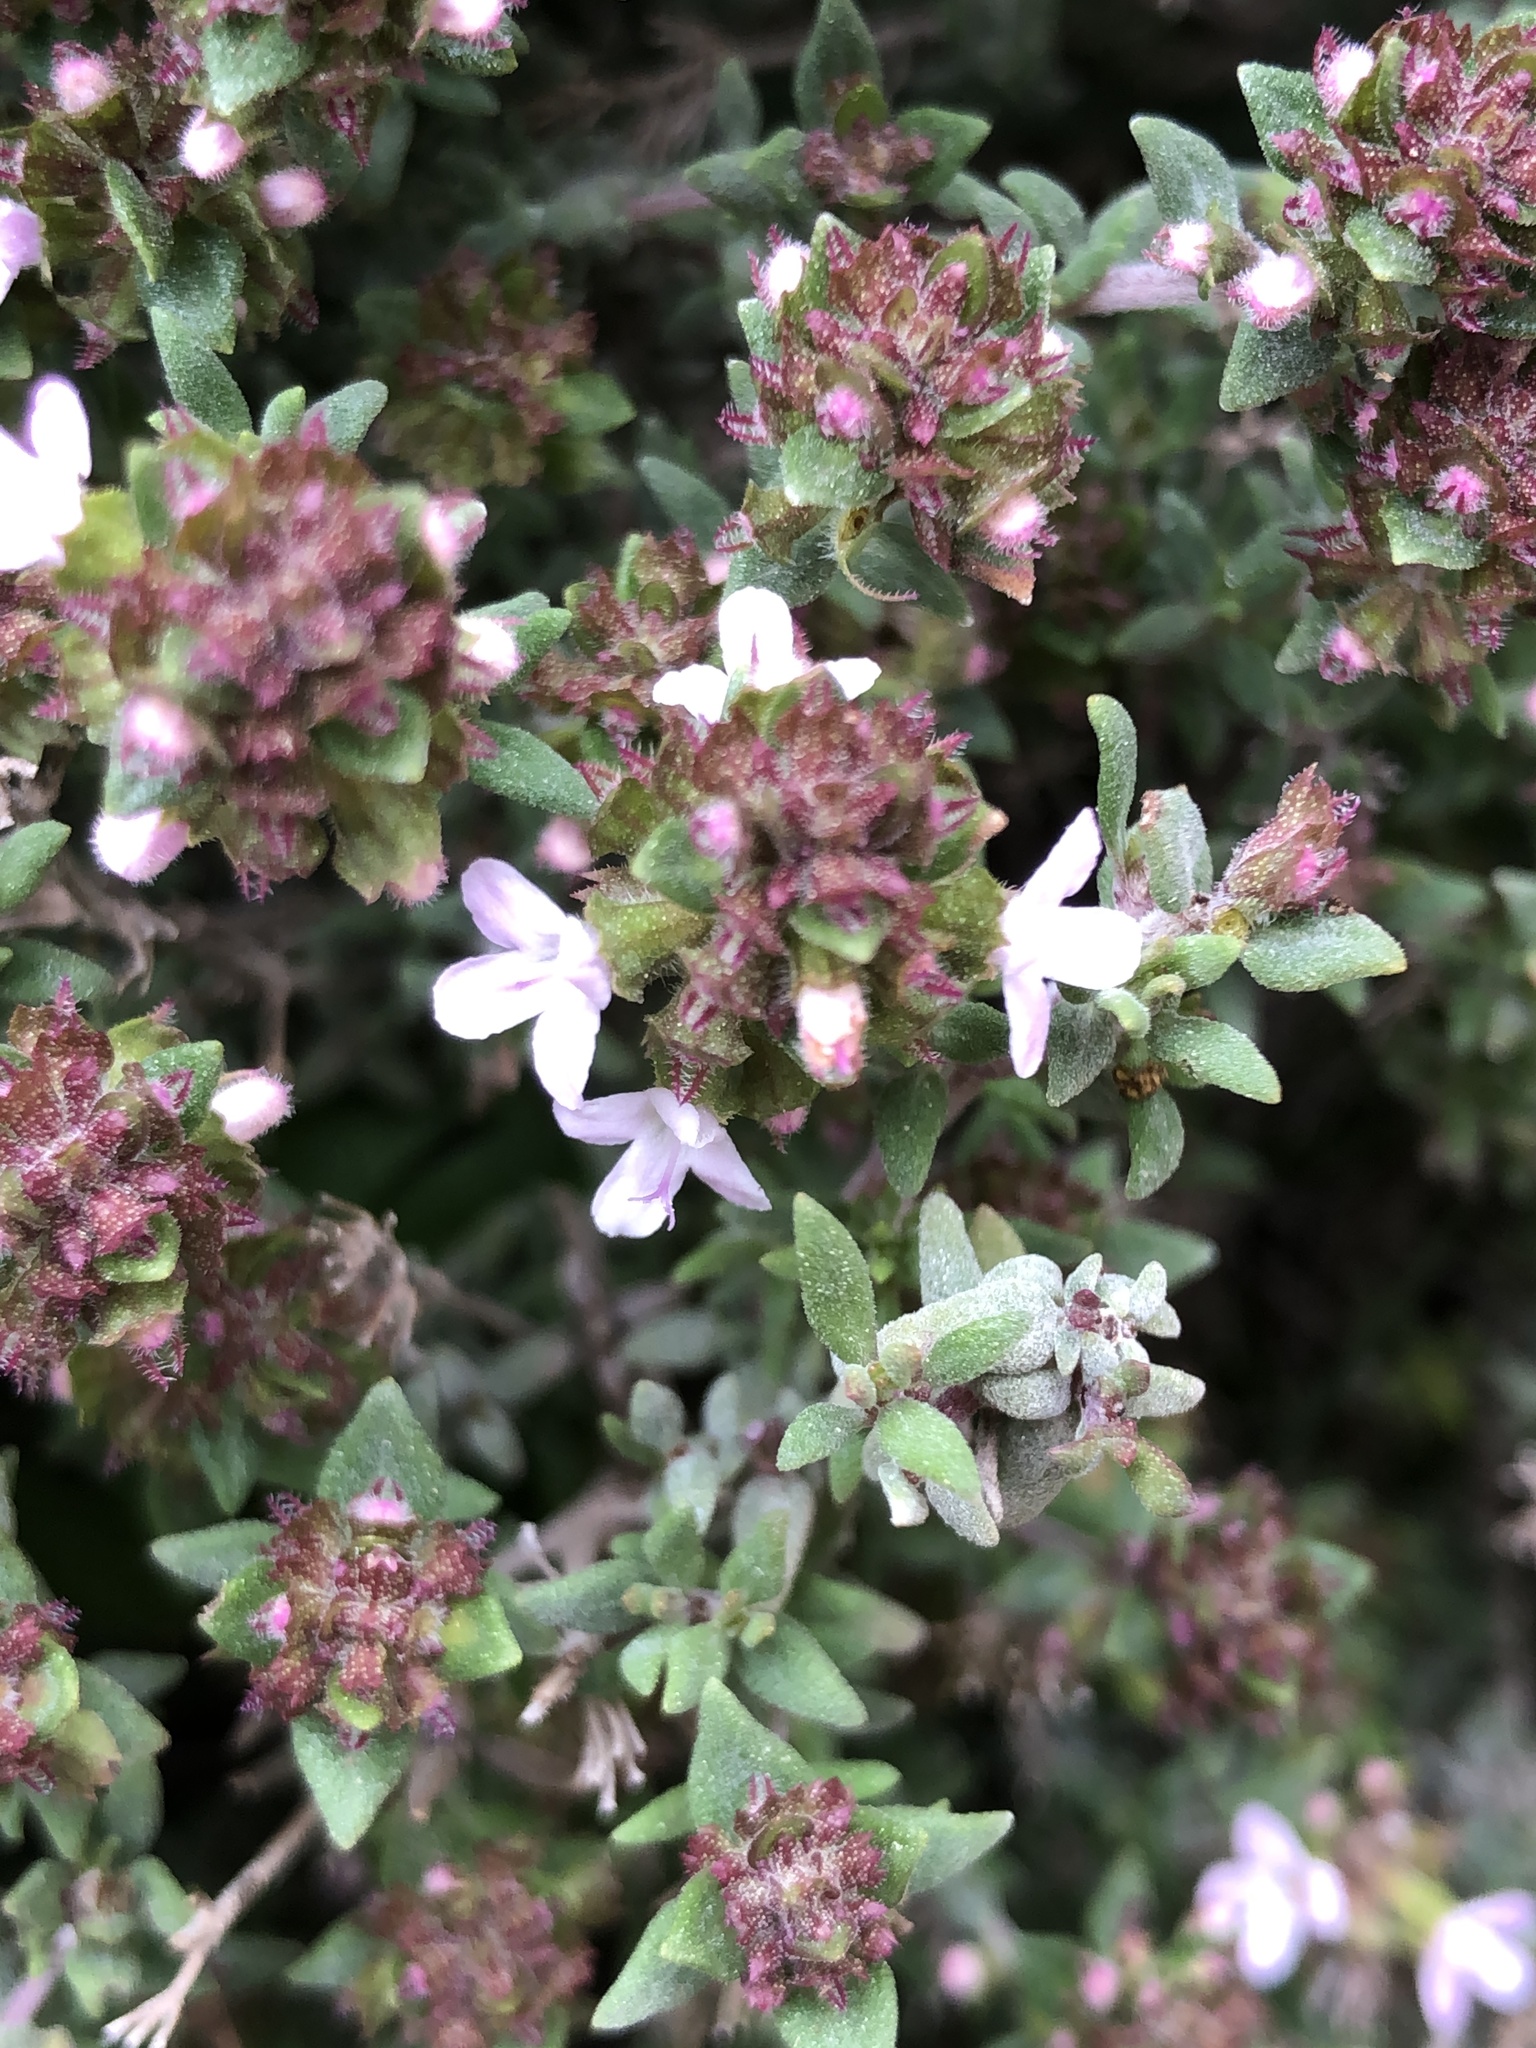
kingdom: Plantae
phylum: Tracheophyta
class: Magnoliopsida
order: Lamiales
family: Lamiaceae
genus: Thymus
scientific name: Thymus vulgaris
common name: Garden thyme
